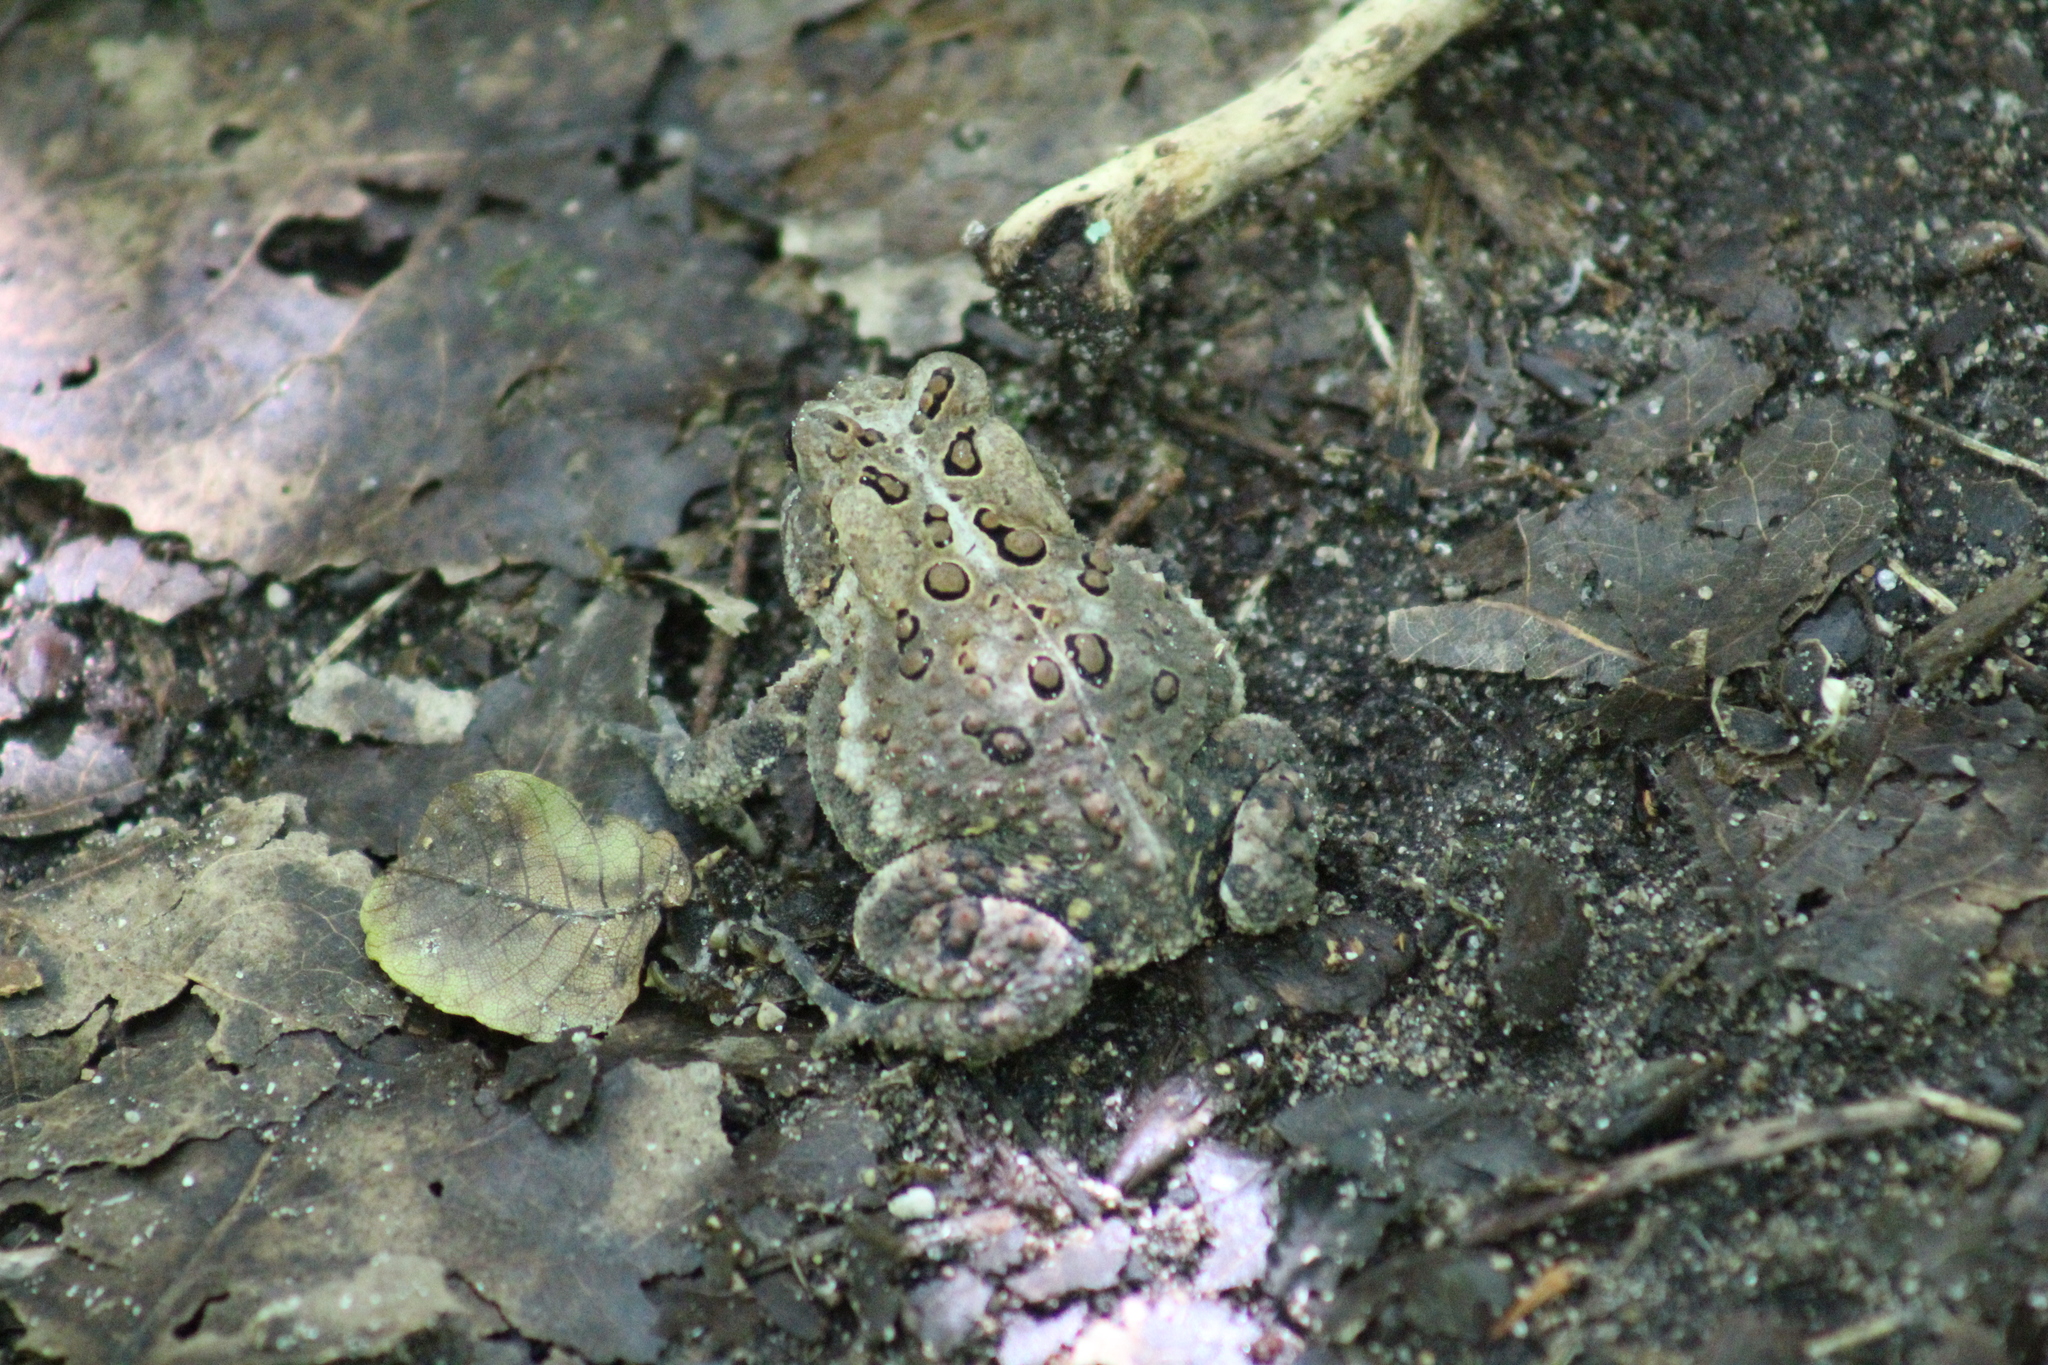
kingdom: Animalia
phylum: Chordata
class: Amphibia
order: Anura
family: Bufonidae
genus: Anaxyrus
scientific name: Anaxyrus americanus
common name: American toad
